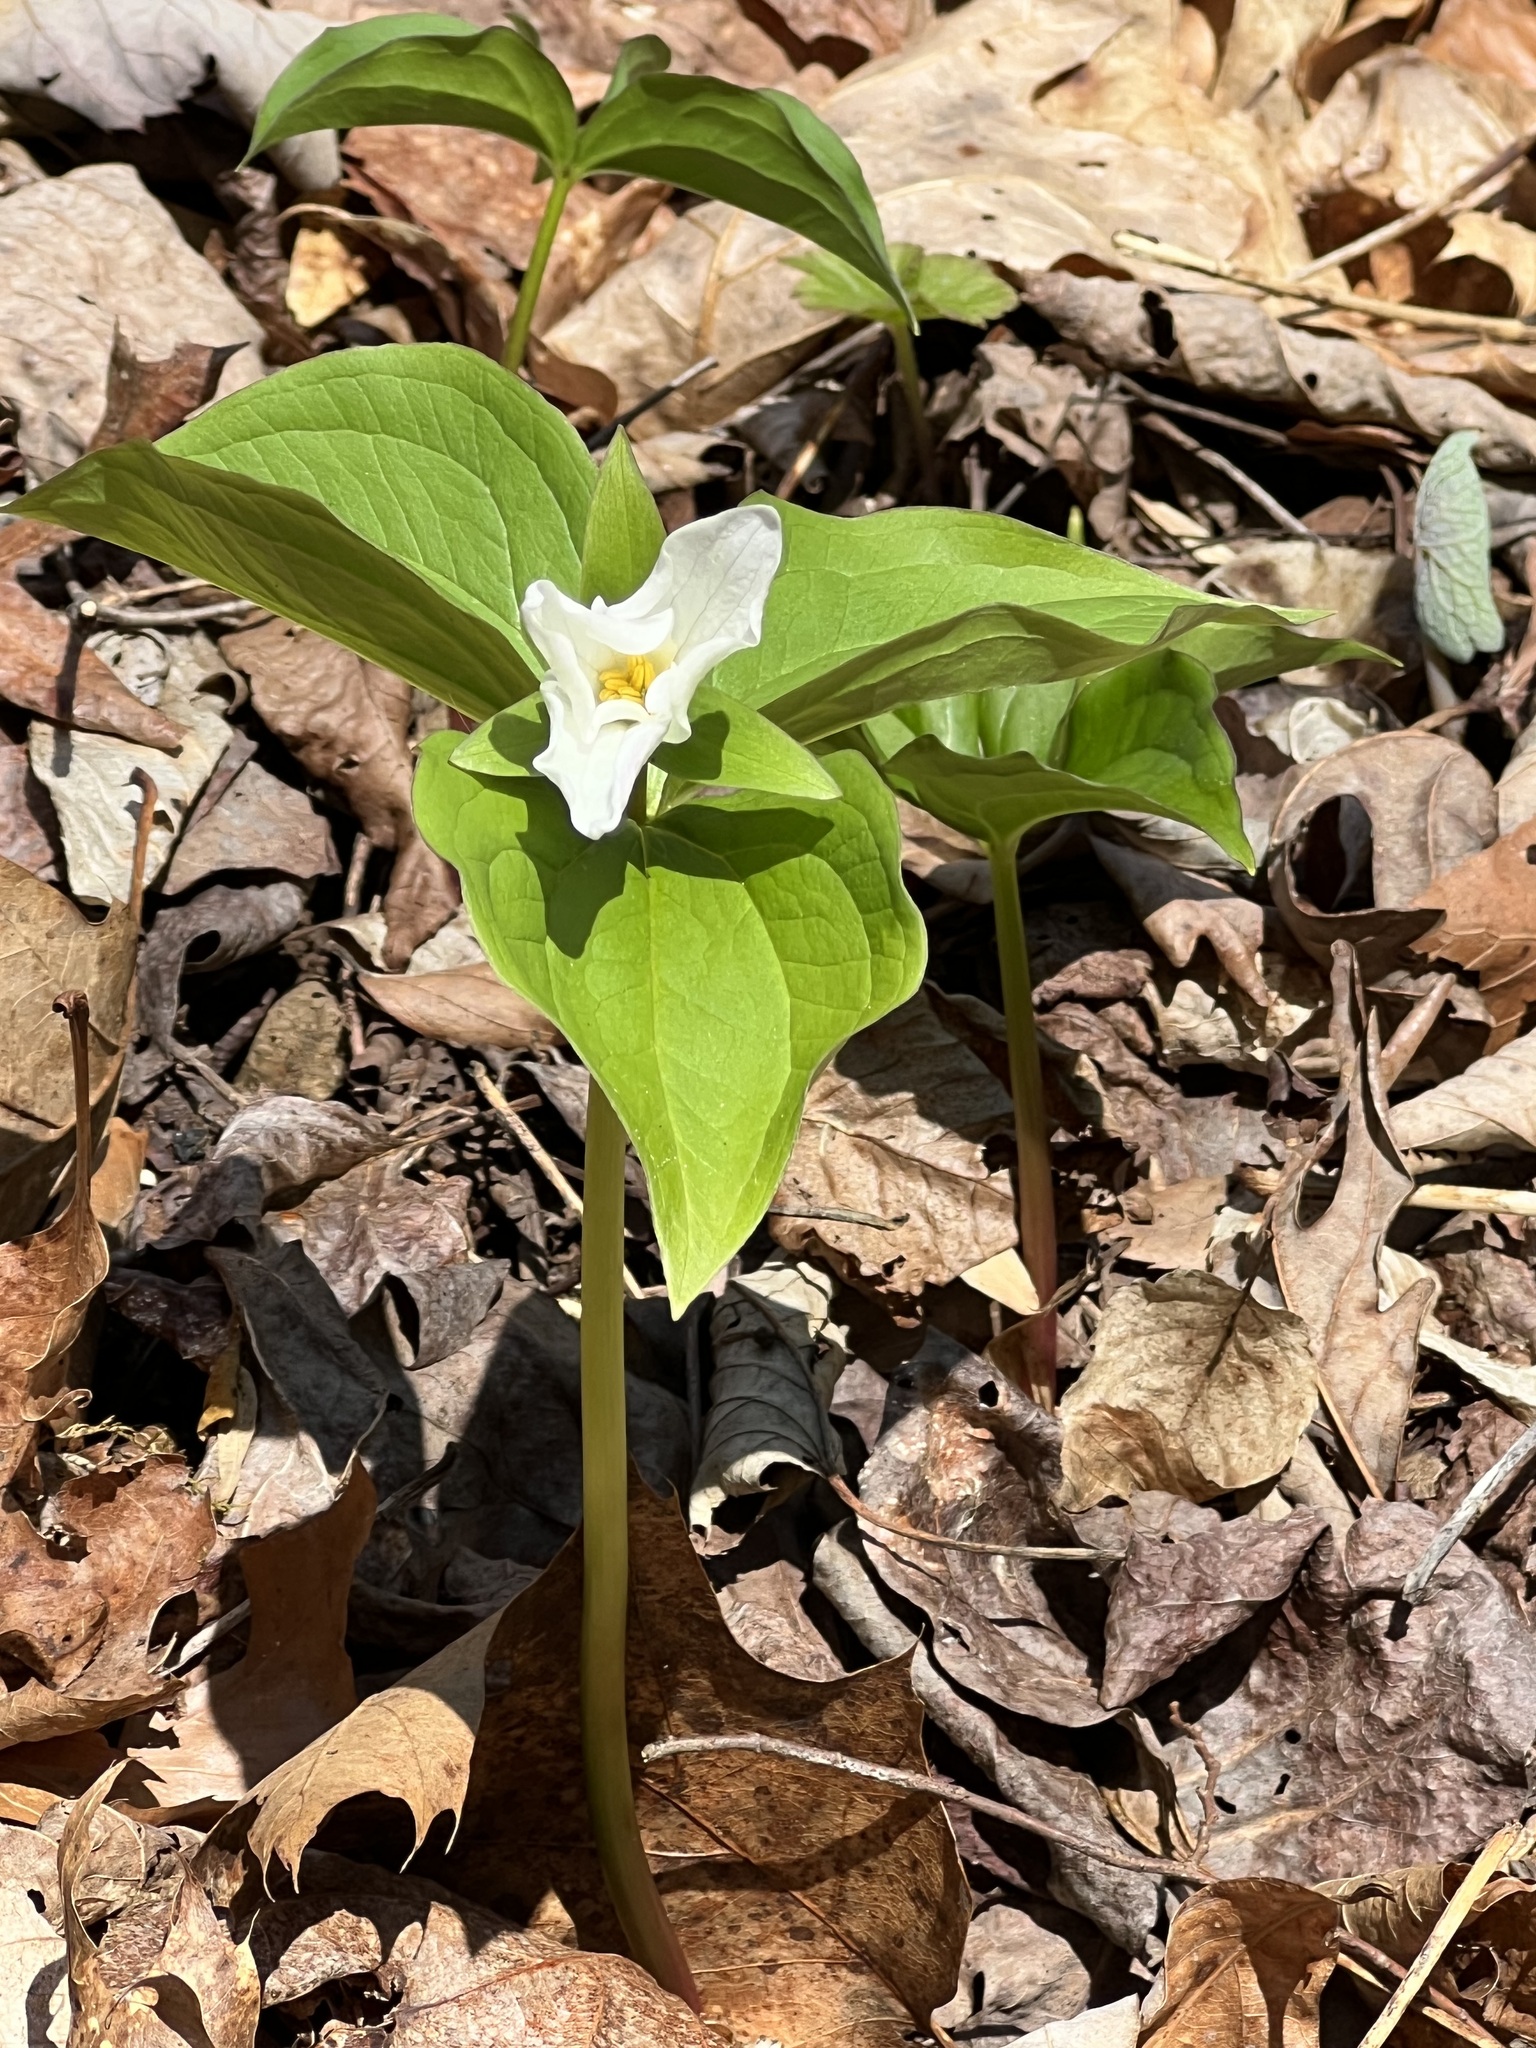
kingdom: Plantae
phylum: Tracheophyta
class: Liliopsida
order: Liliales
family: Melanthiaceae
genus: Trillium
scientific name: Trillium grandiflorum
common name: Great white trillium
